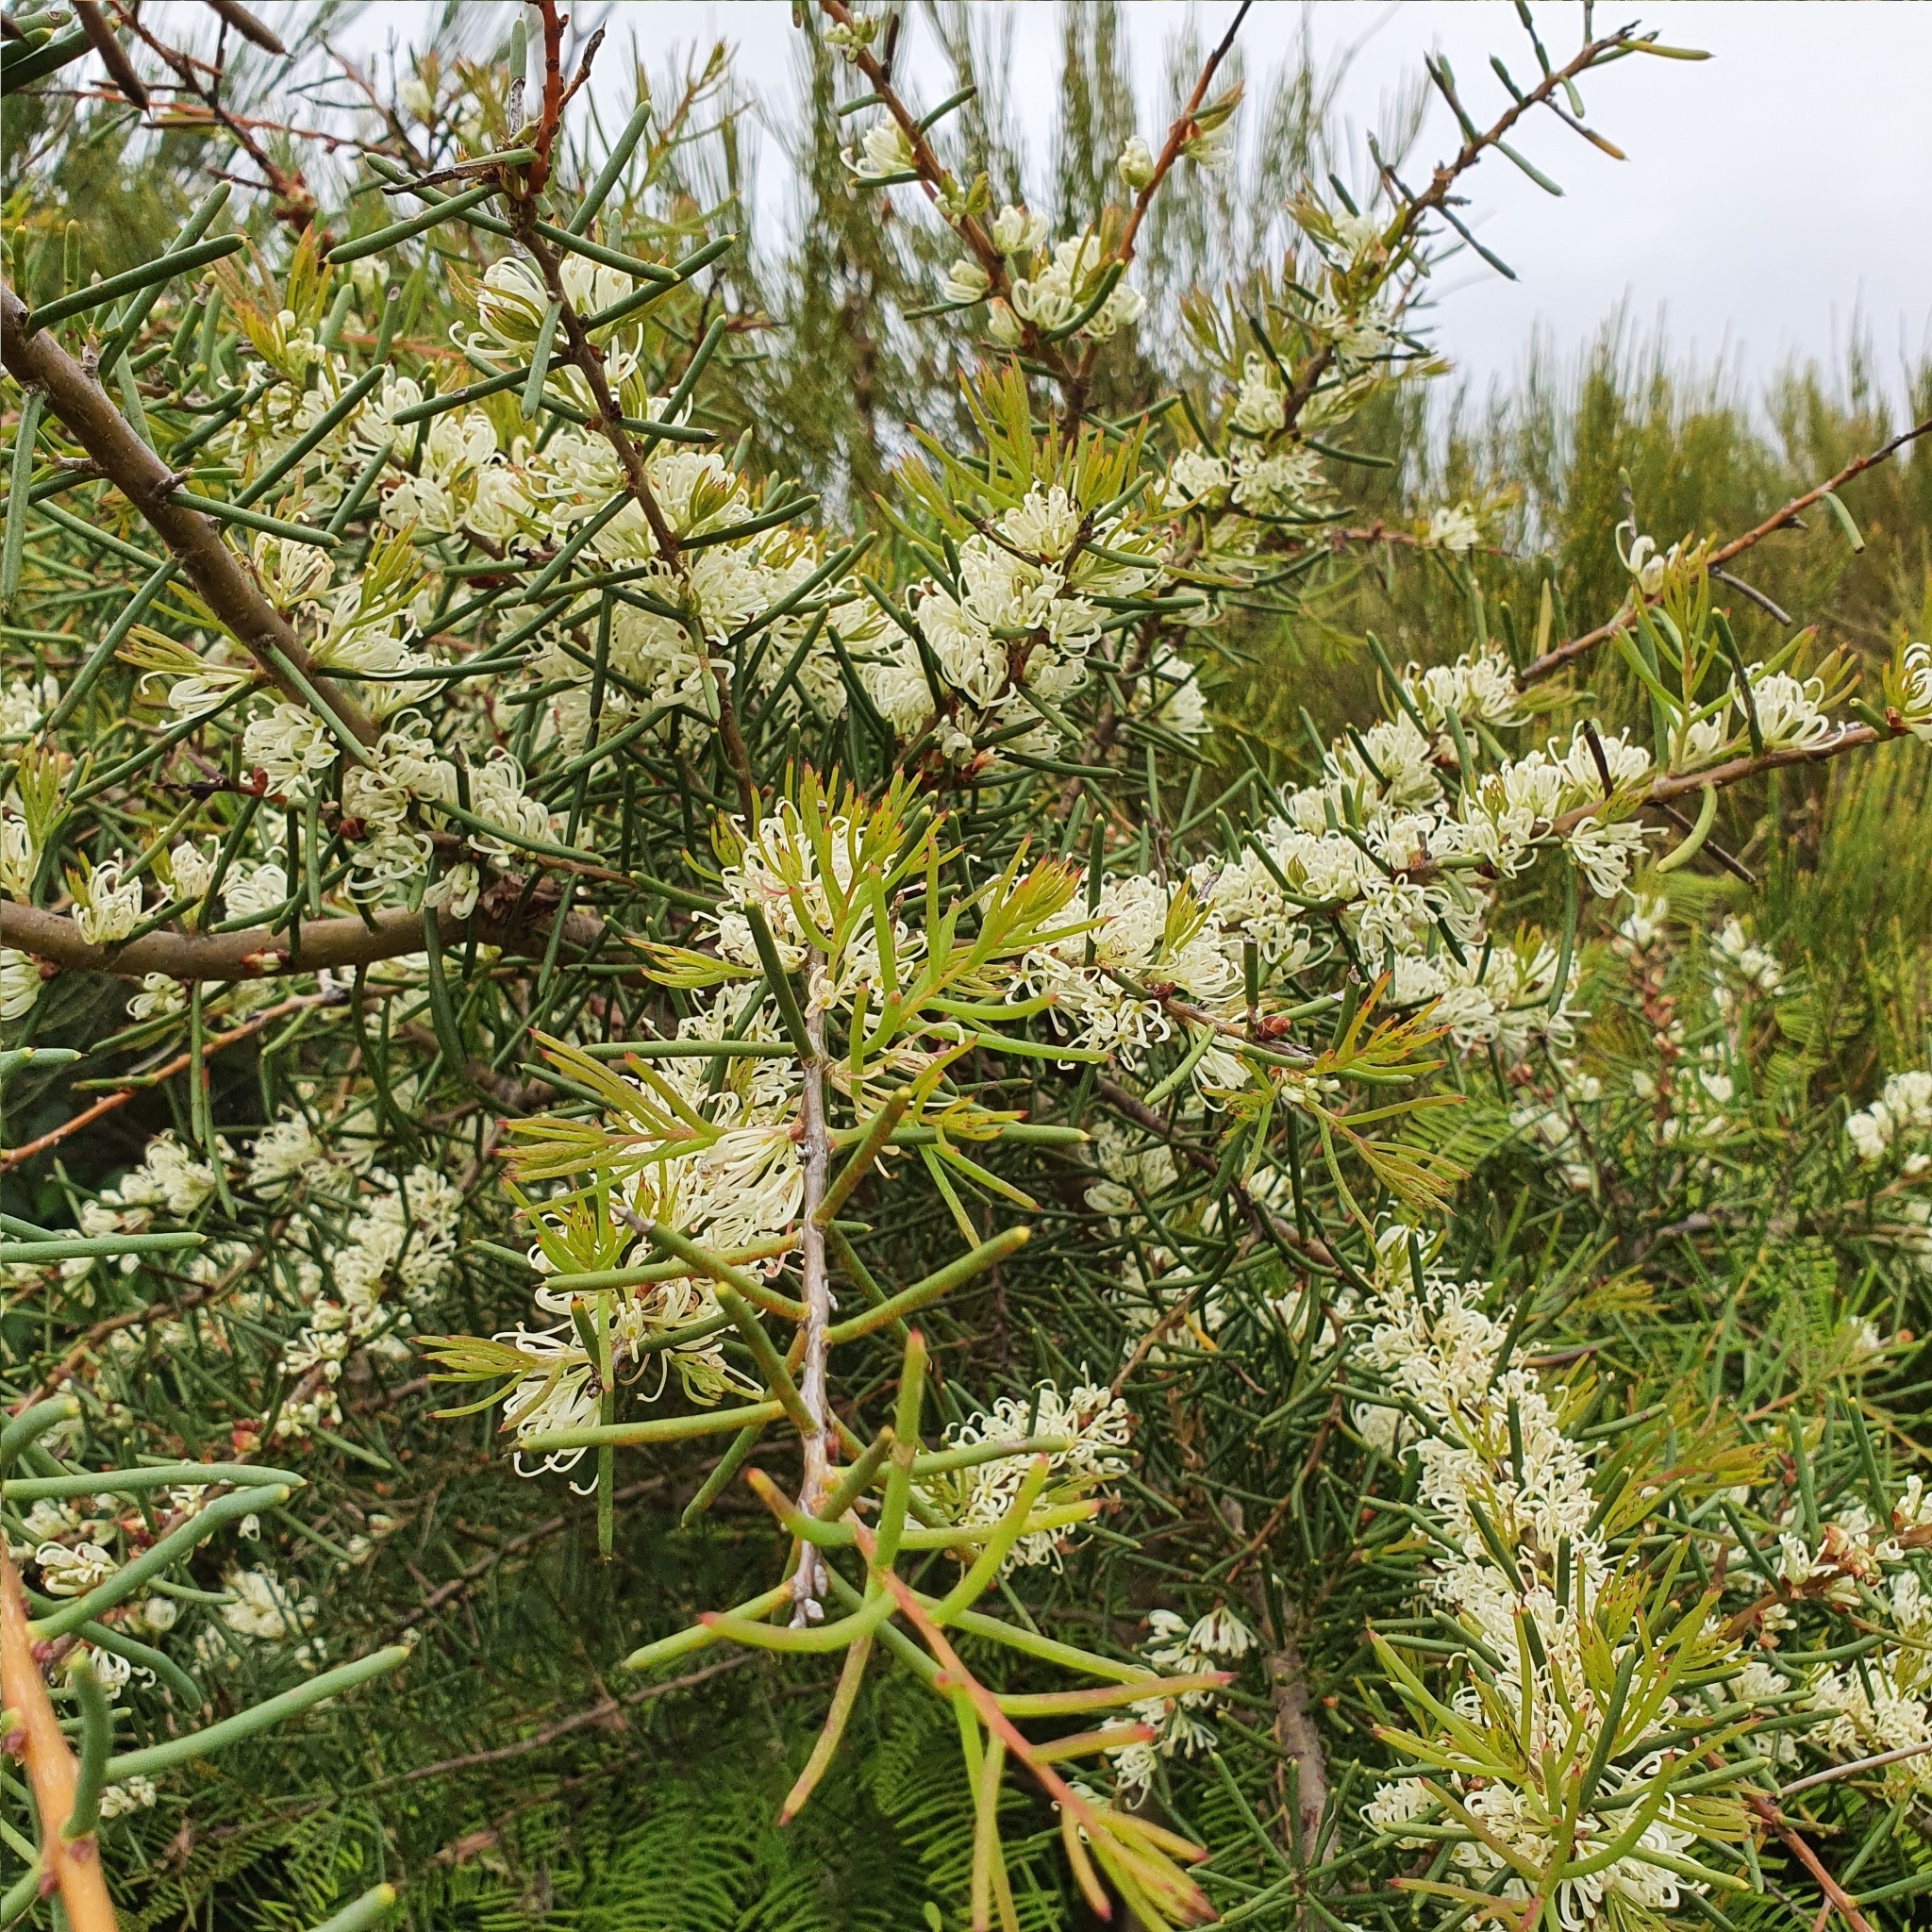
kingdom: Plantae
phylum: Tracheophyta
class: Magnoliopsida
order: Proteales
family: Proteaceae
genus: Hakea
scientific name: Hakea teretifolia
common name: Dagger hakea
